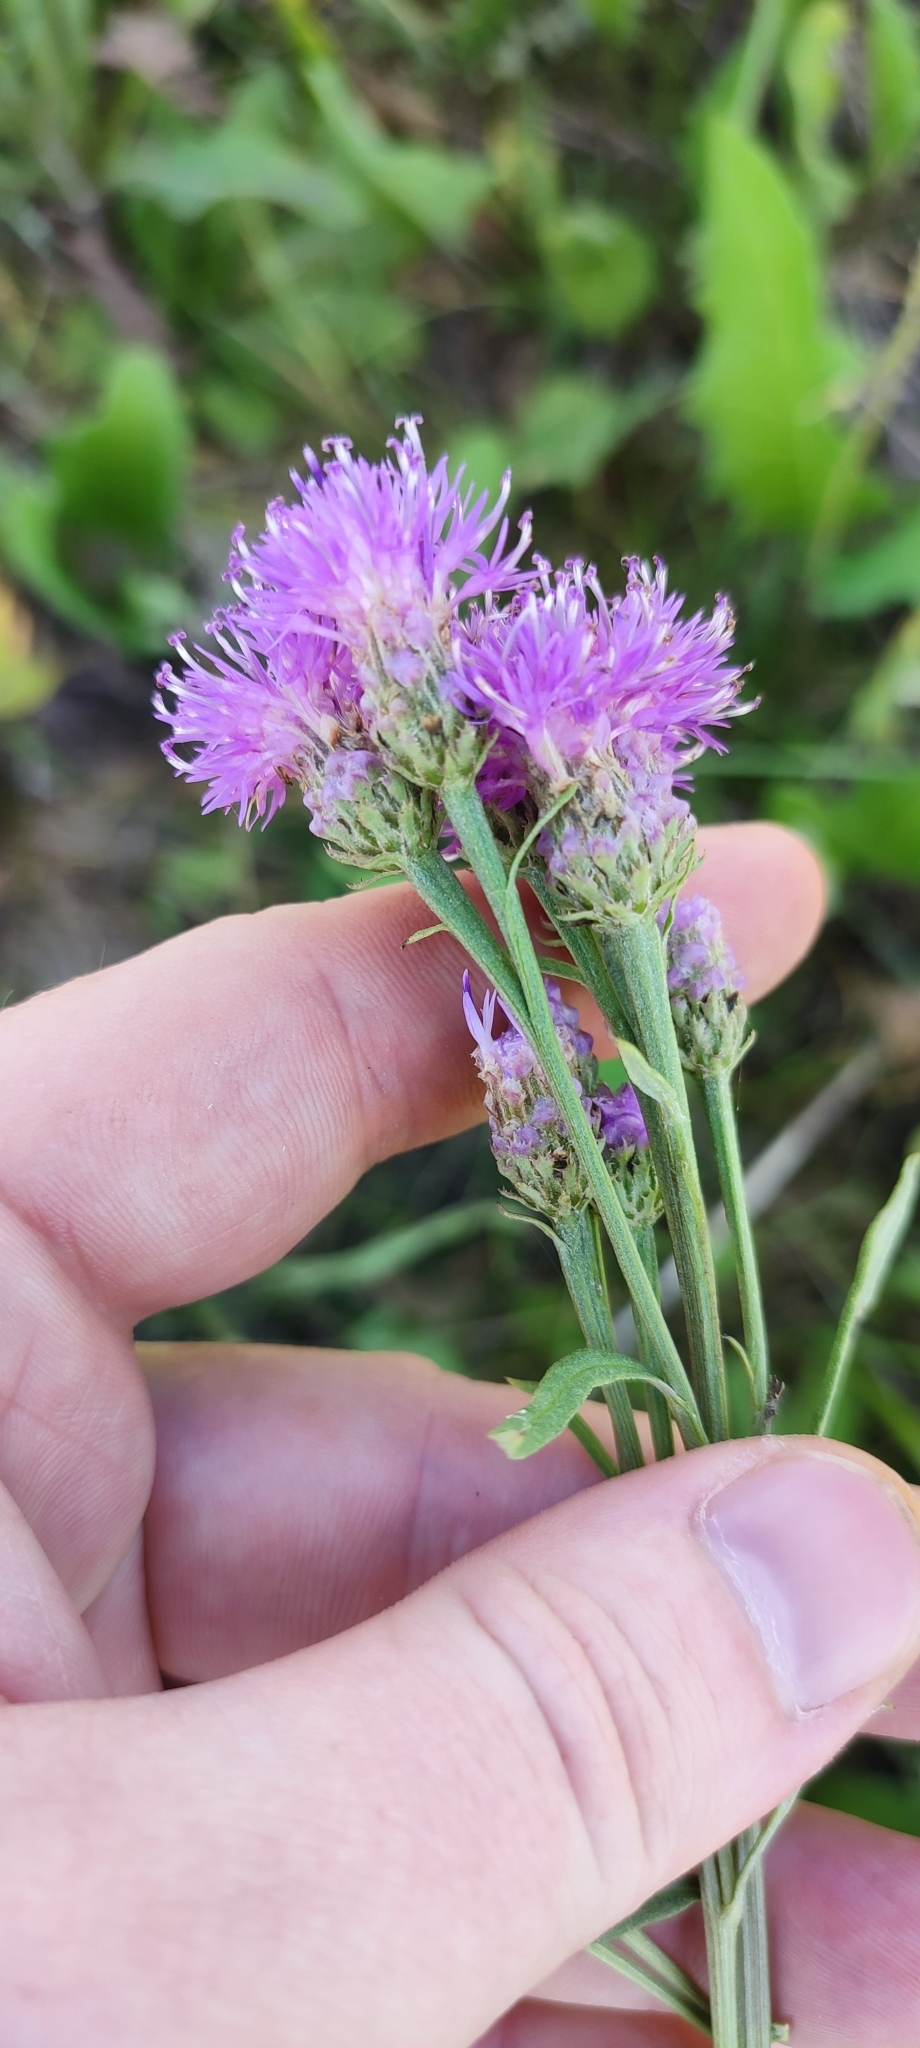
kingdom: Plantae
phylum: Tracheophyta
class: Magnoliopsida
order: Asterales
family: Asteraceae
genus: Saussurea
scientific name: Saussurea amara
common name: Alberta sawwort
